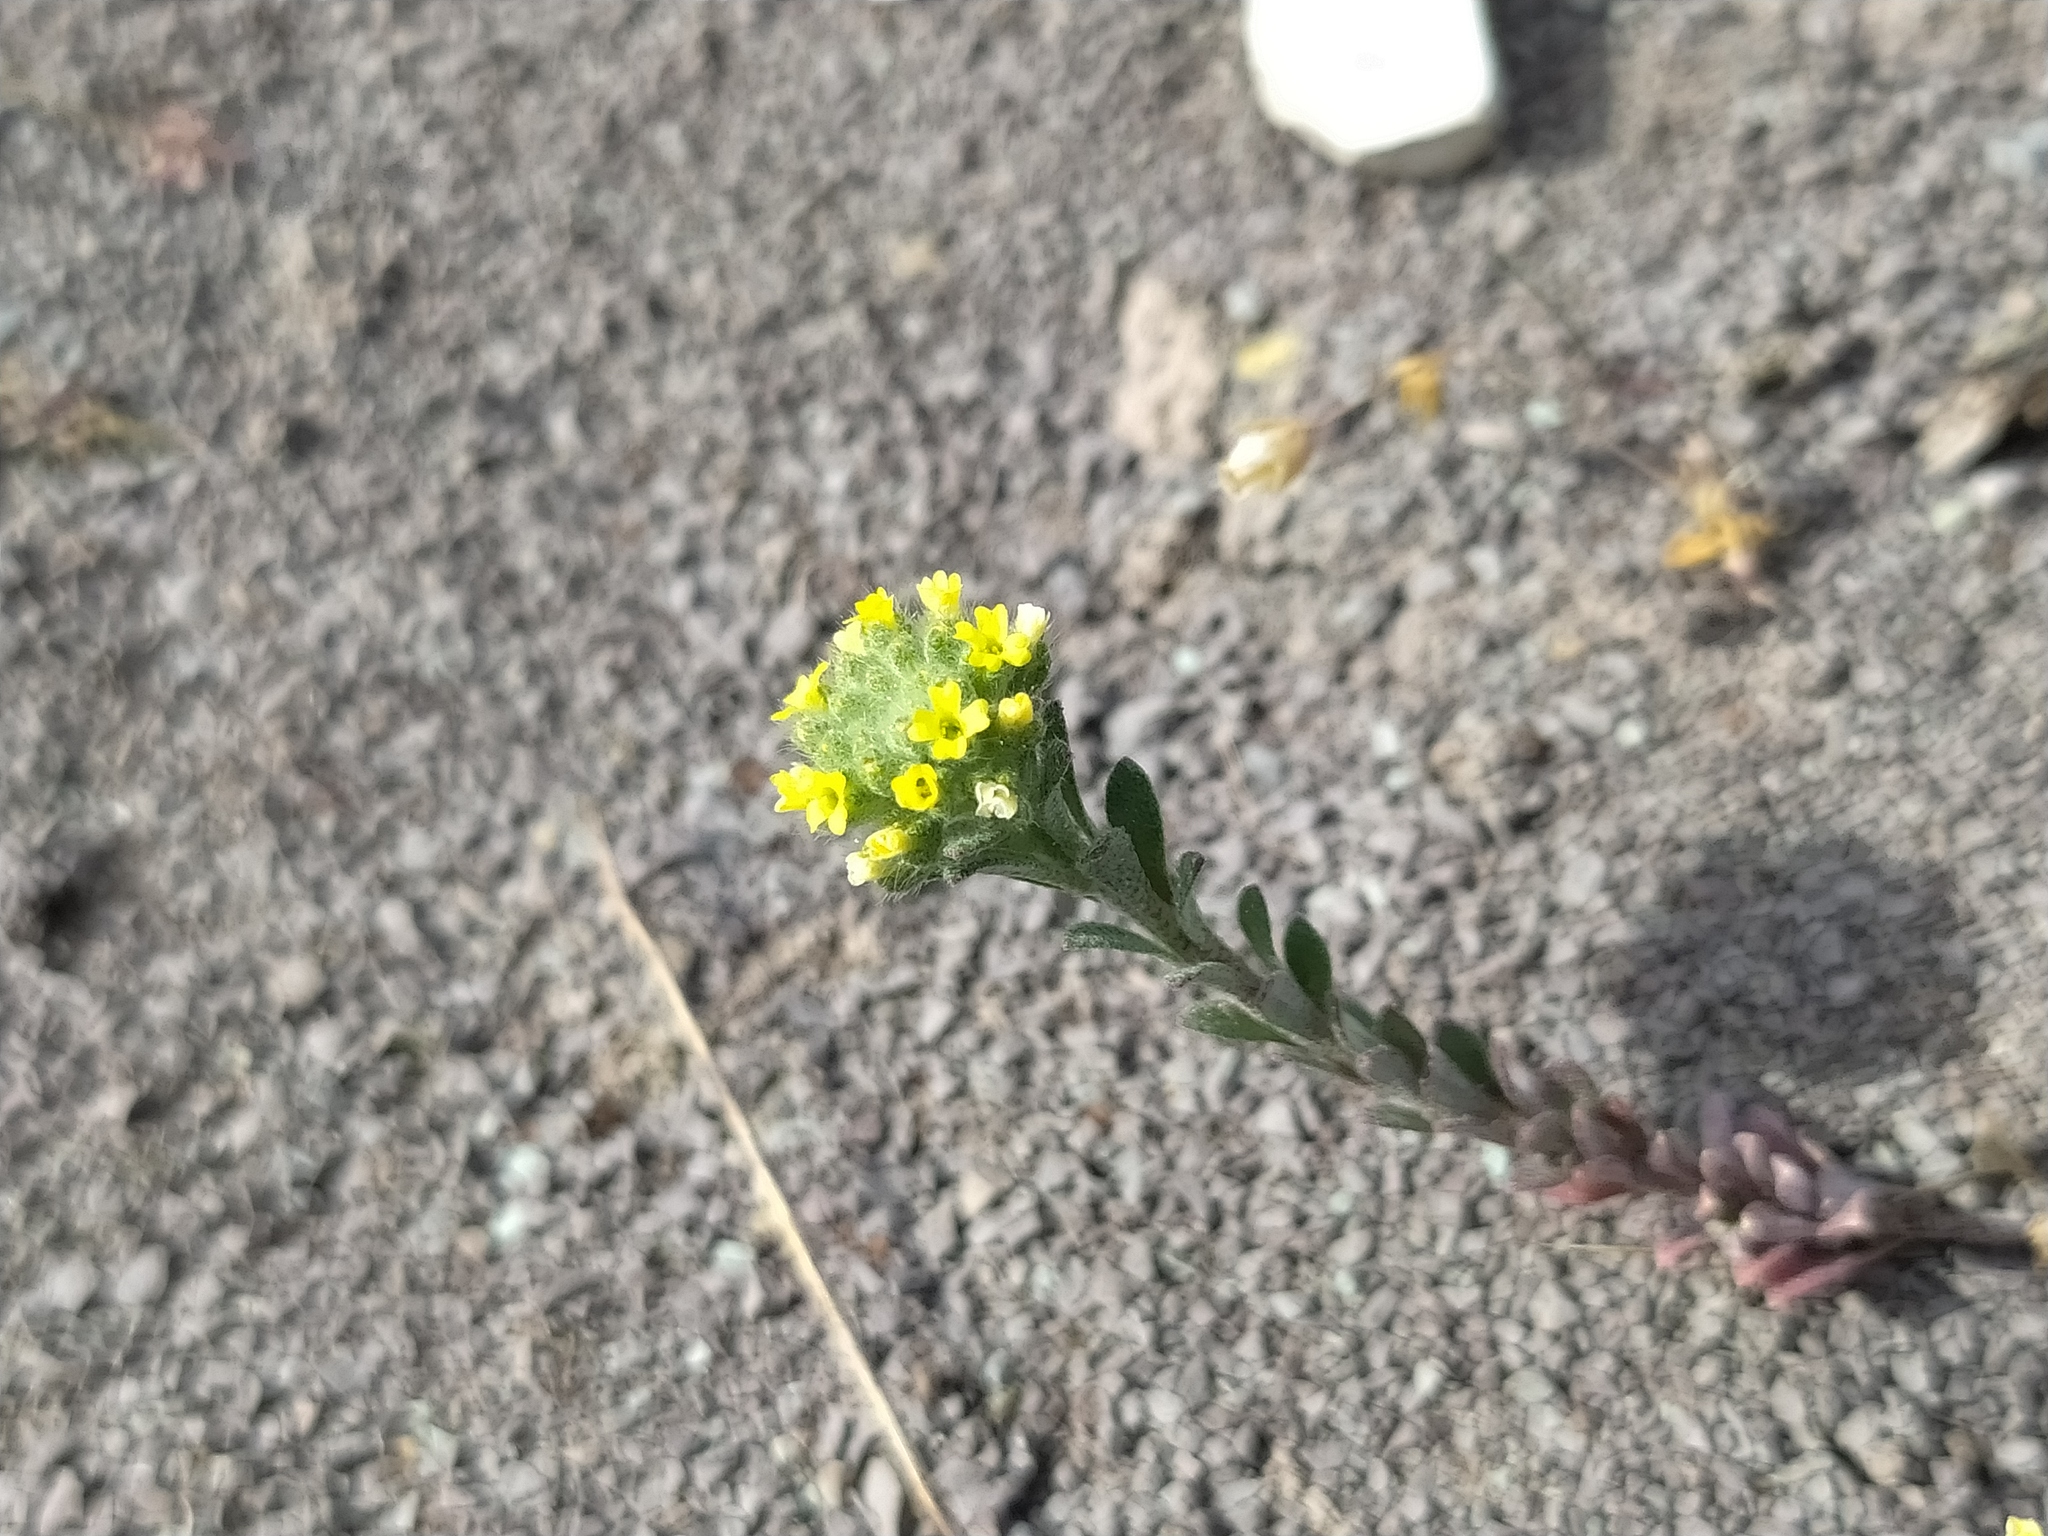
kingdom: Plantae
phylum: Tracheophyta
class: Magnoliopsida
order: Brassicales
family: Brassicaceae
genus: Alyssum
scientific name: Alyssum alyssoides
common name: Small alison
